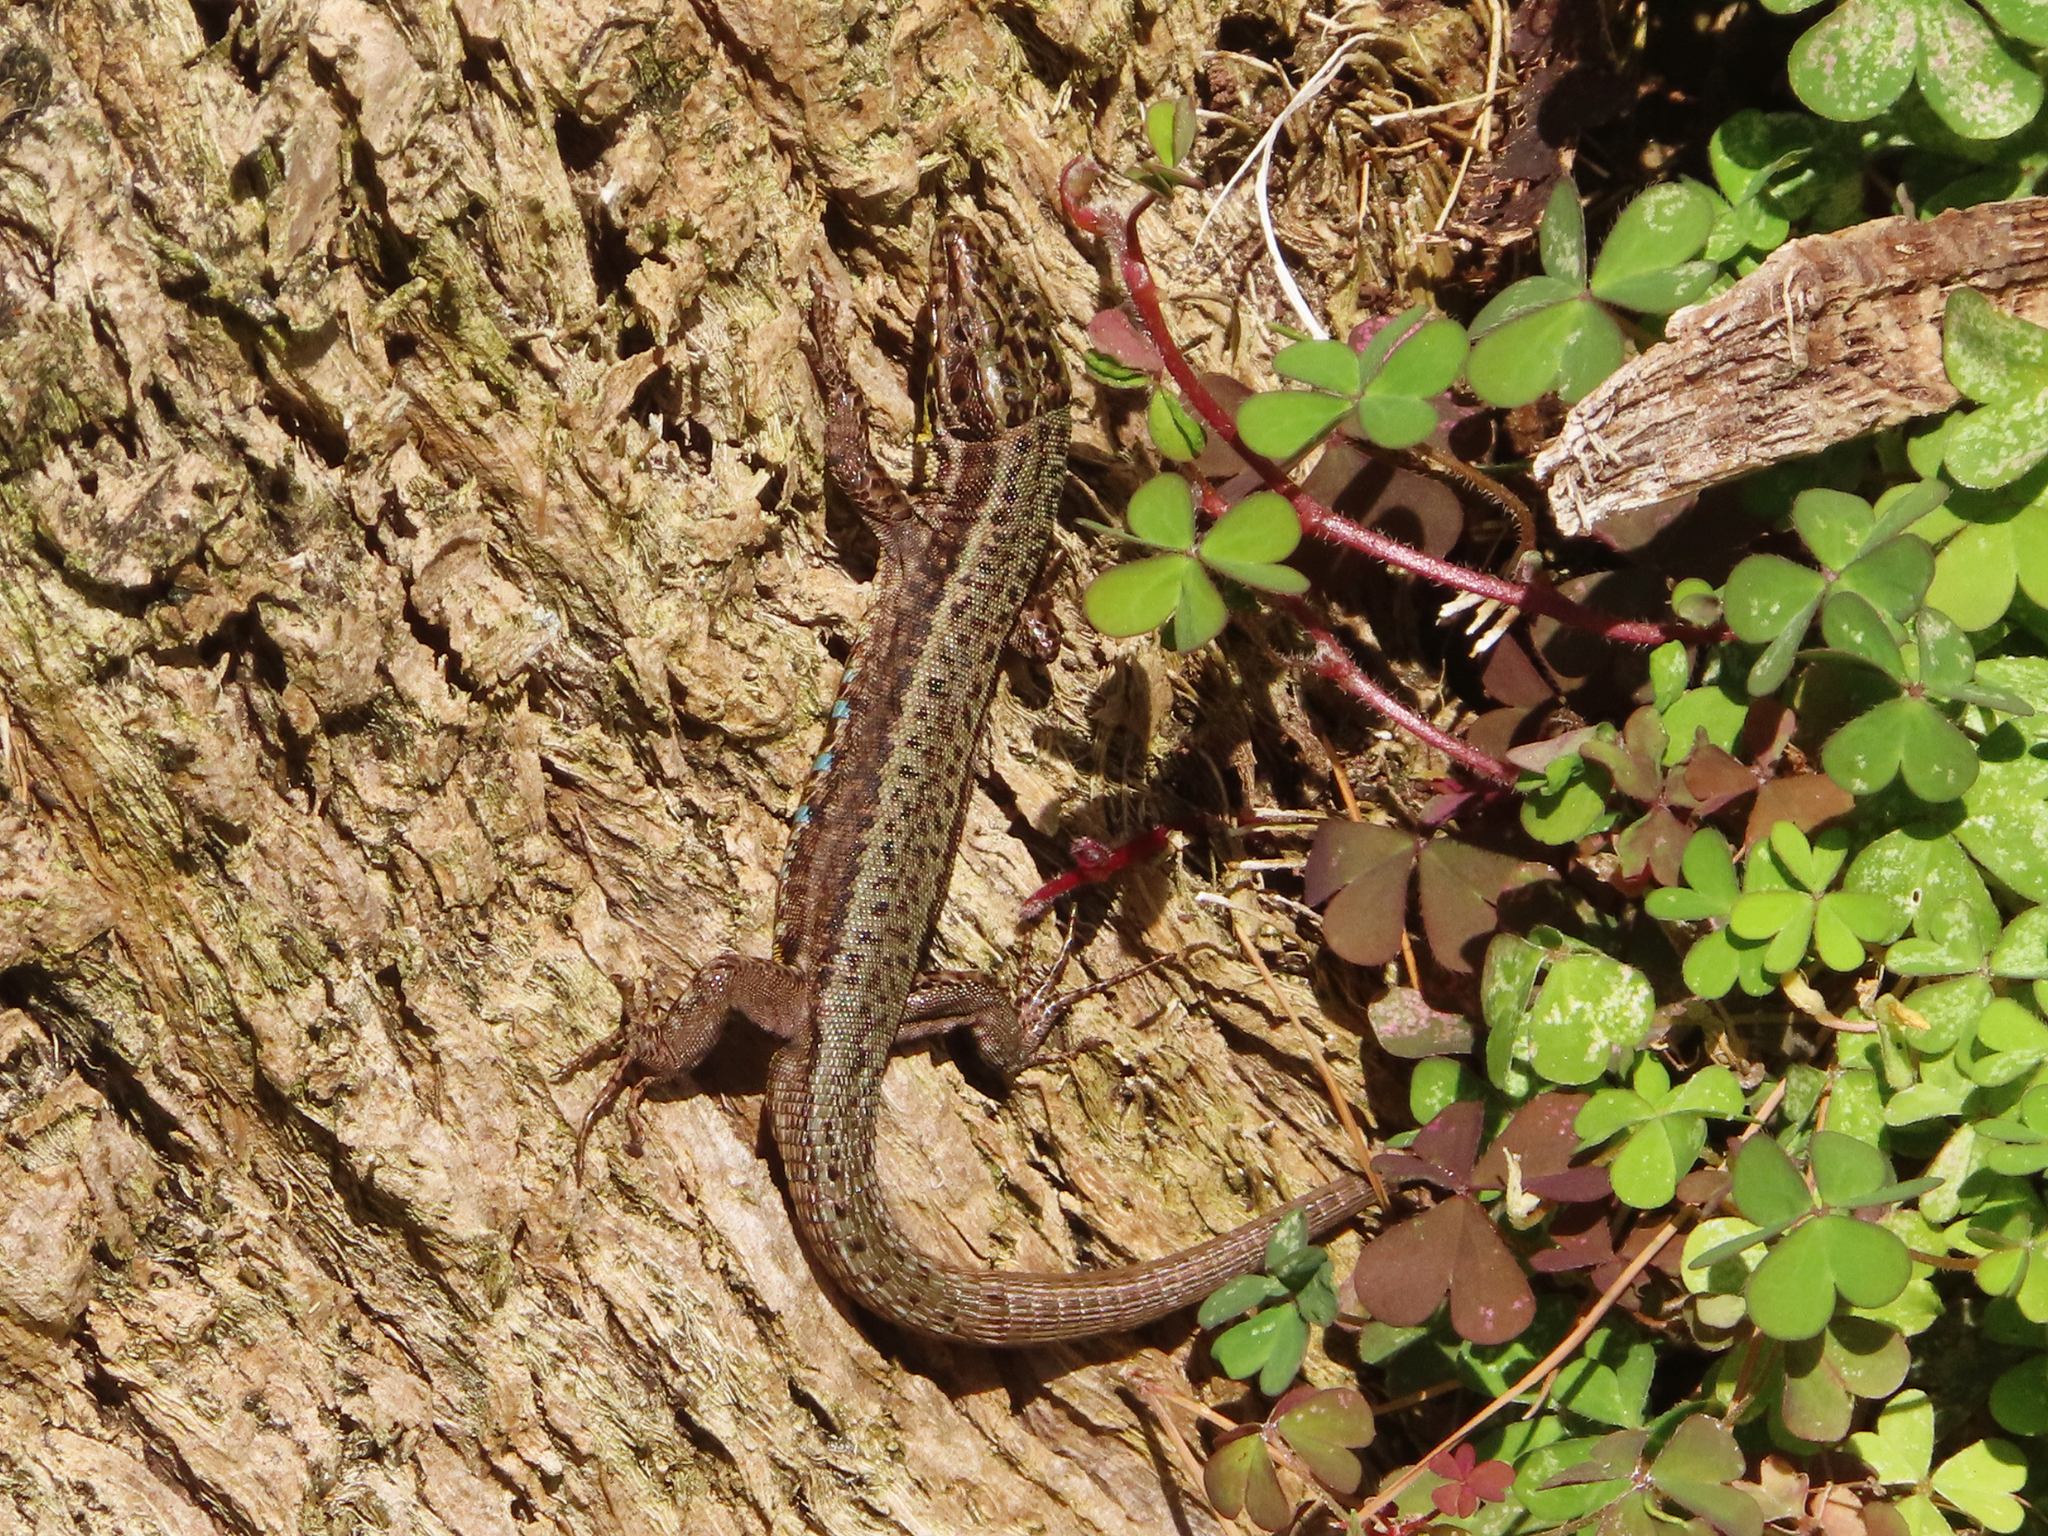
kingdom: Animalia
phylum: Chordata
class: Squamata
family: Lacertidae
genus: Podarcis
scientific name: Podarcis muralis
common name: Common wall lizard
